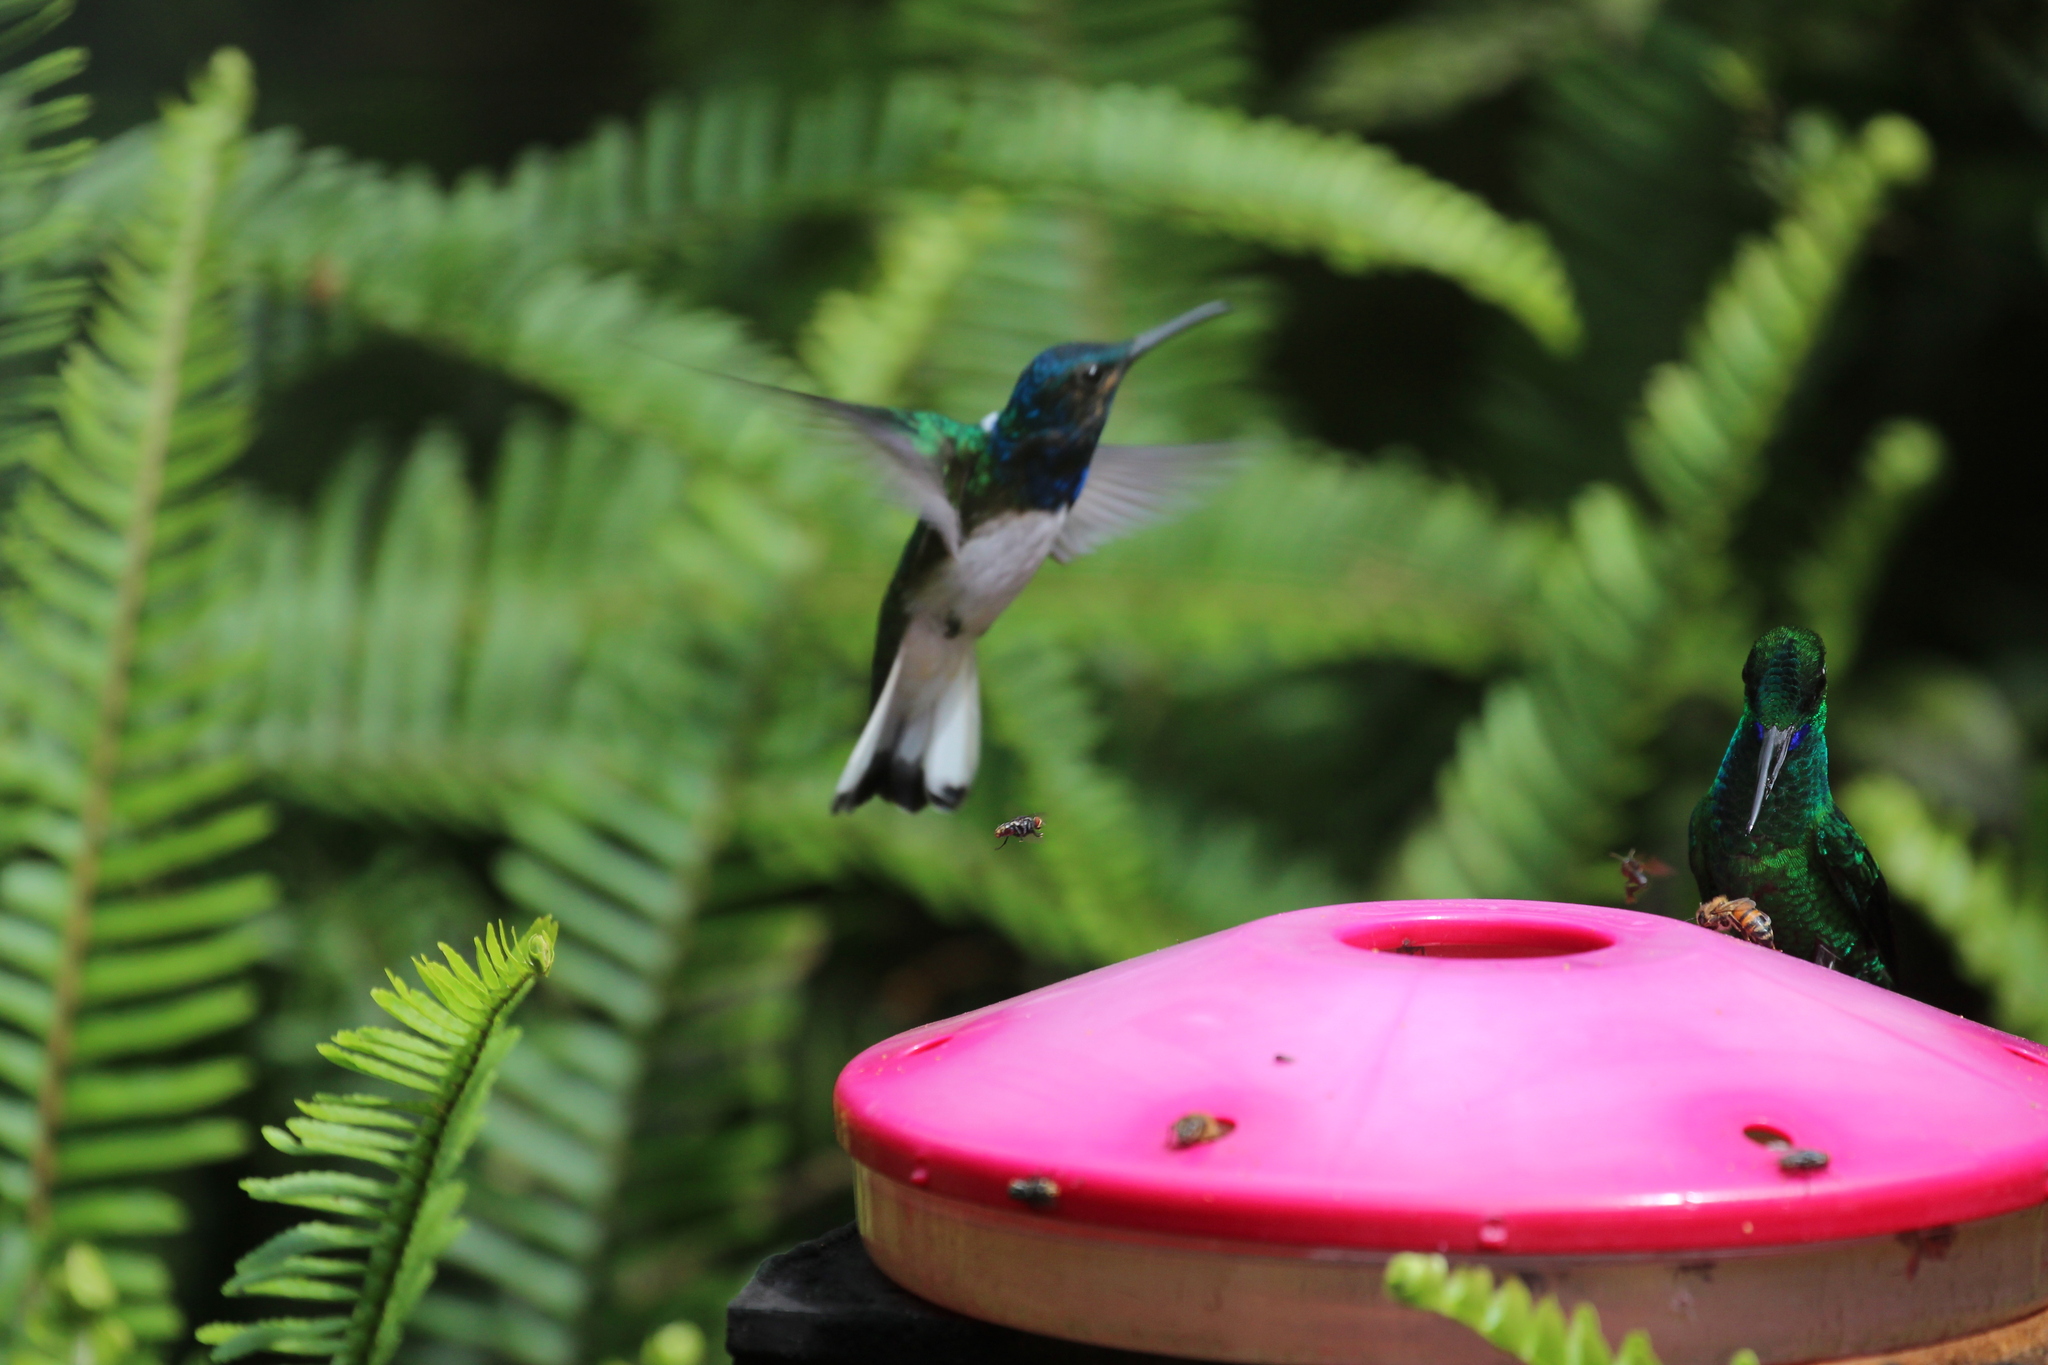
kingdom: Animalia
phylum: Chordata
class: Aves
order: Apodiformes
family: Trochilidae
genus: Heliodoxa
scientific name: Heliodoxa jacula
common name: Green-crowned brilliant
